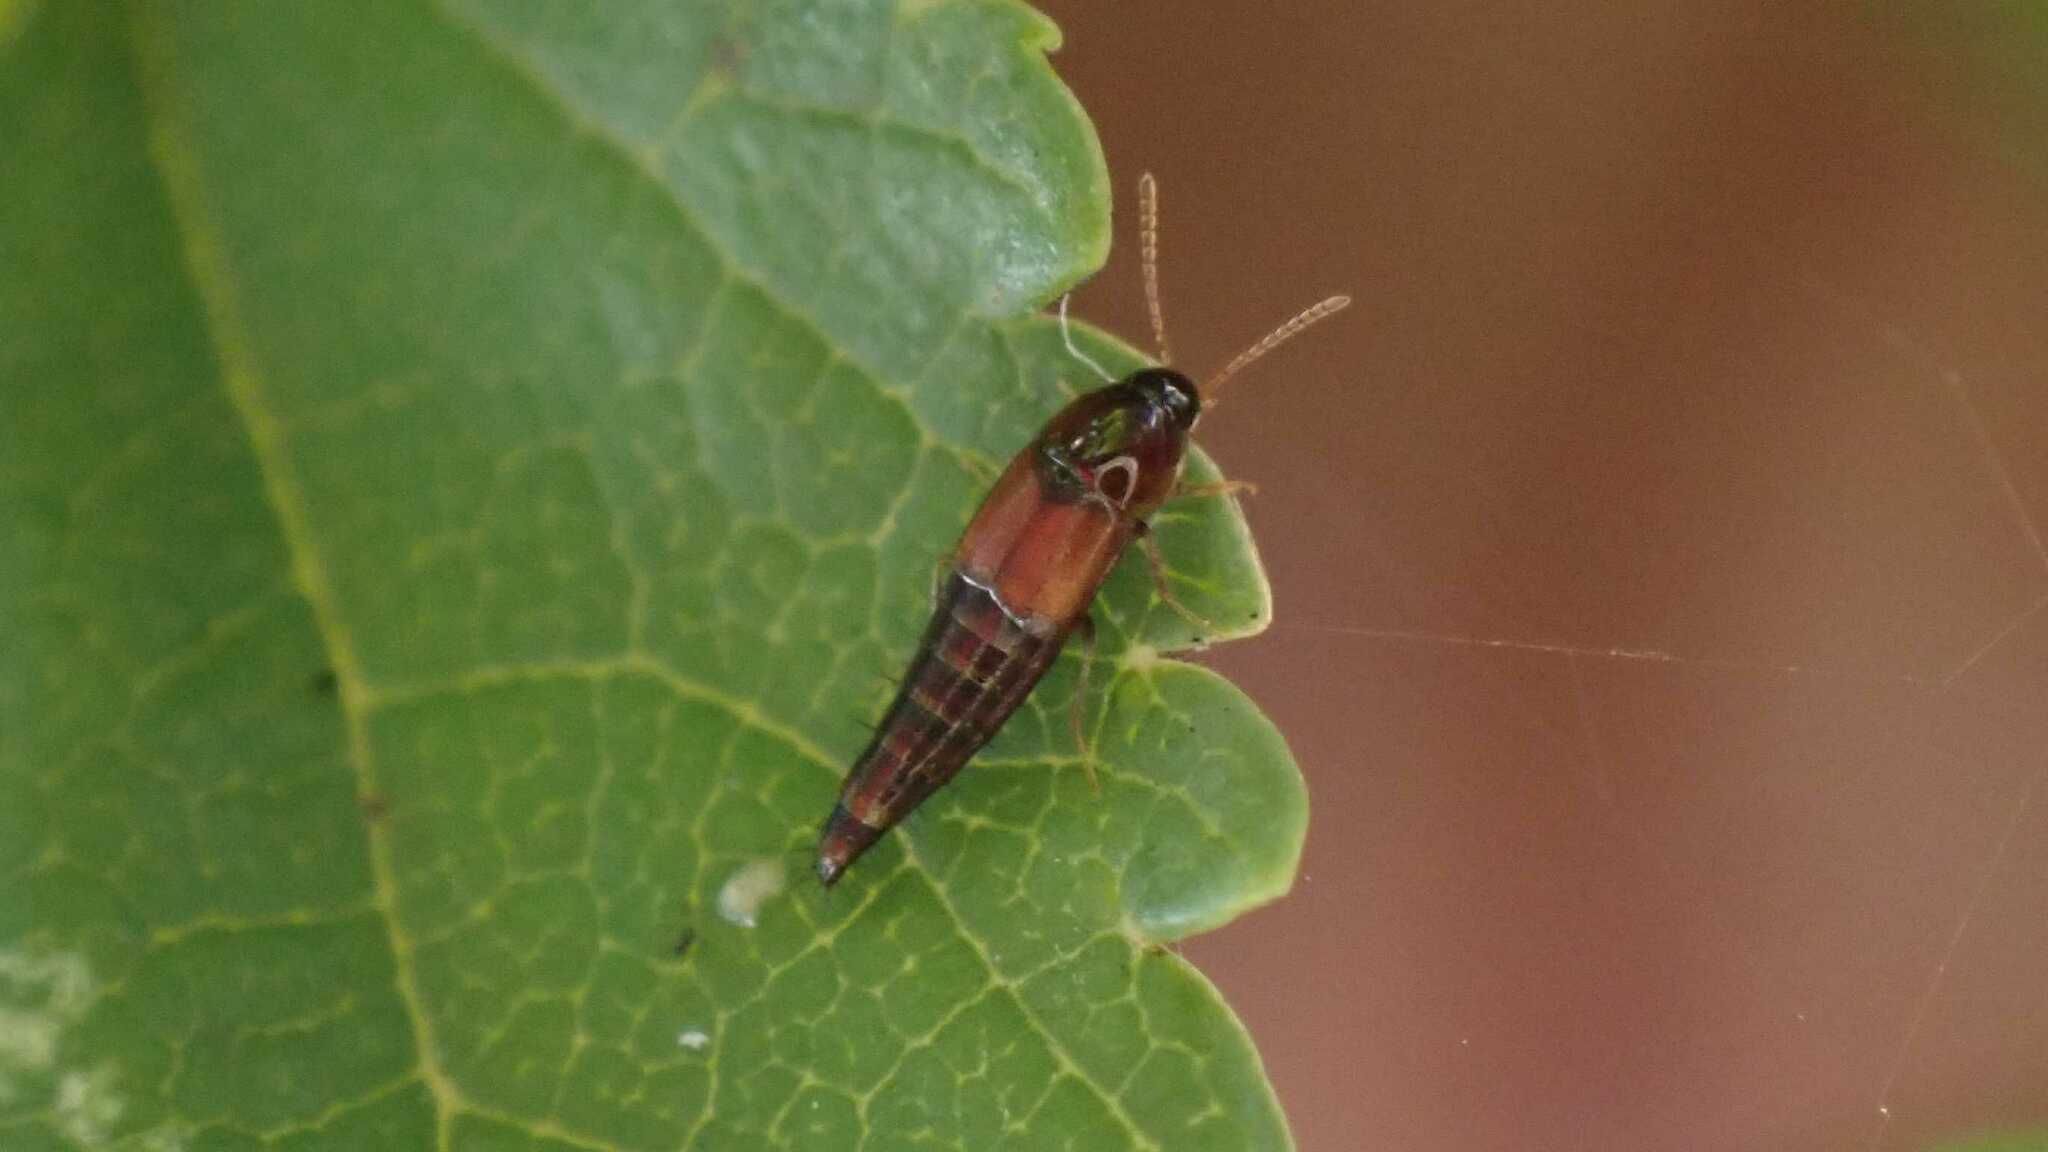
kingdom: Animalia
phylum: Arthropoda
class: Insecta
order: Coleoptera
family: Staphylinidae
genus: Tachyporus
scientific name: Tachyporus hypnorum
